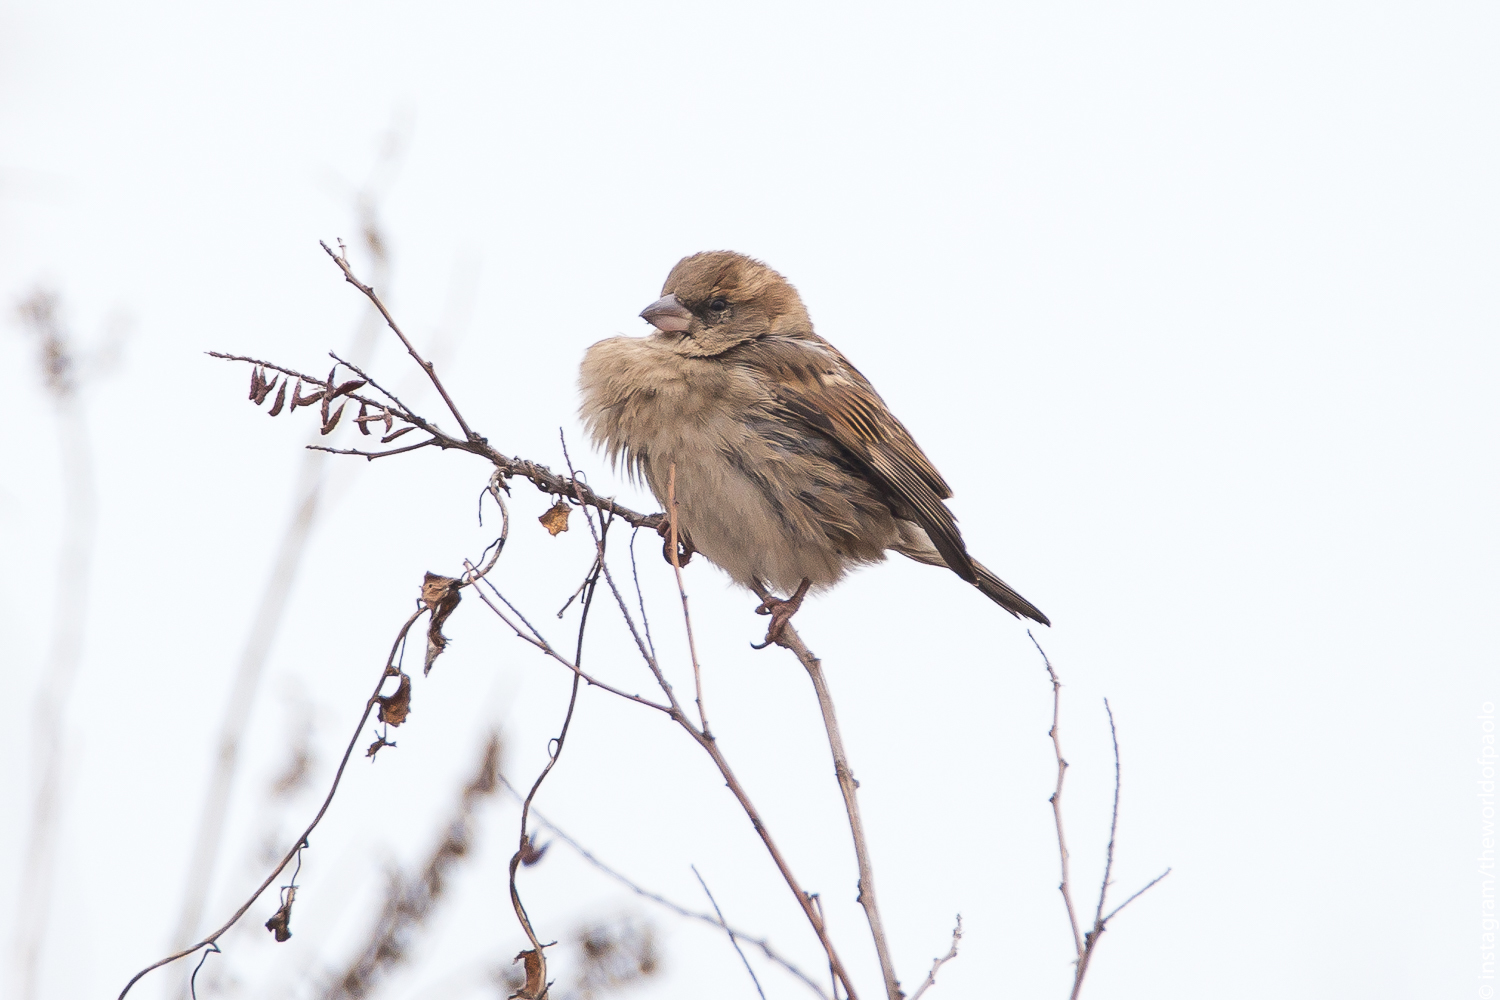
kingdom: Animalia
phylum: Chordata
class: Aves
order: Passeriformes
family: Passeridae
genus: Passer
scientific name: Passer italiae
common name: Italian sparrow
